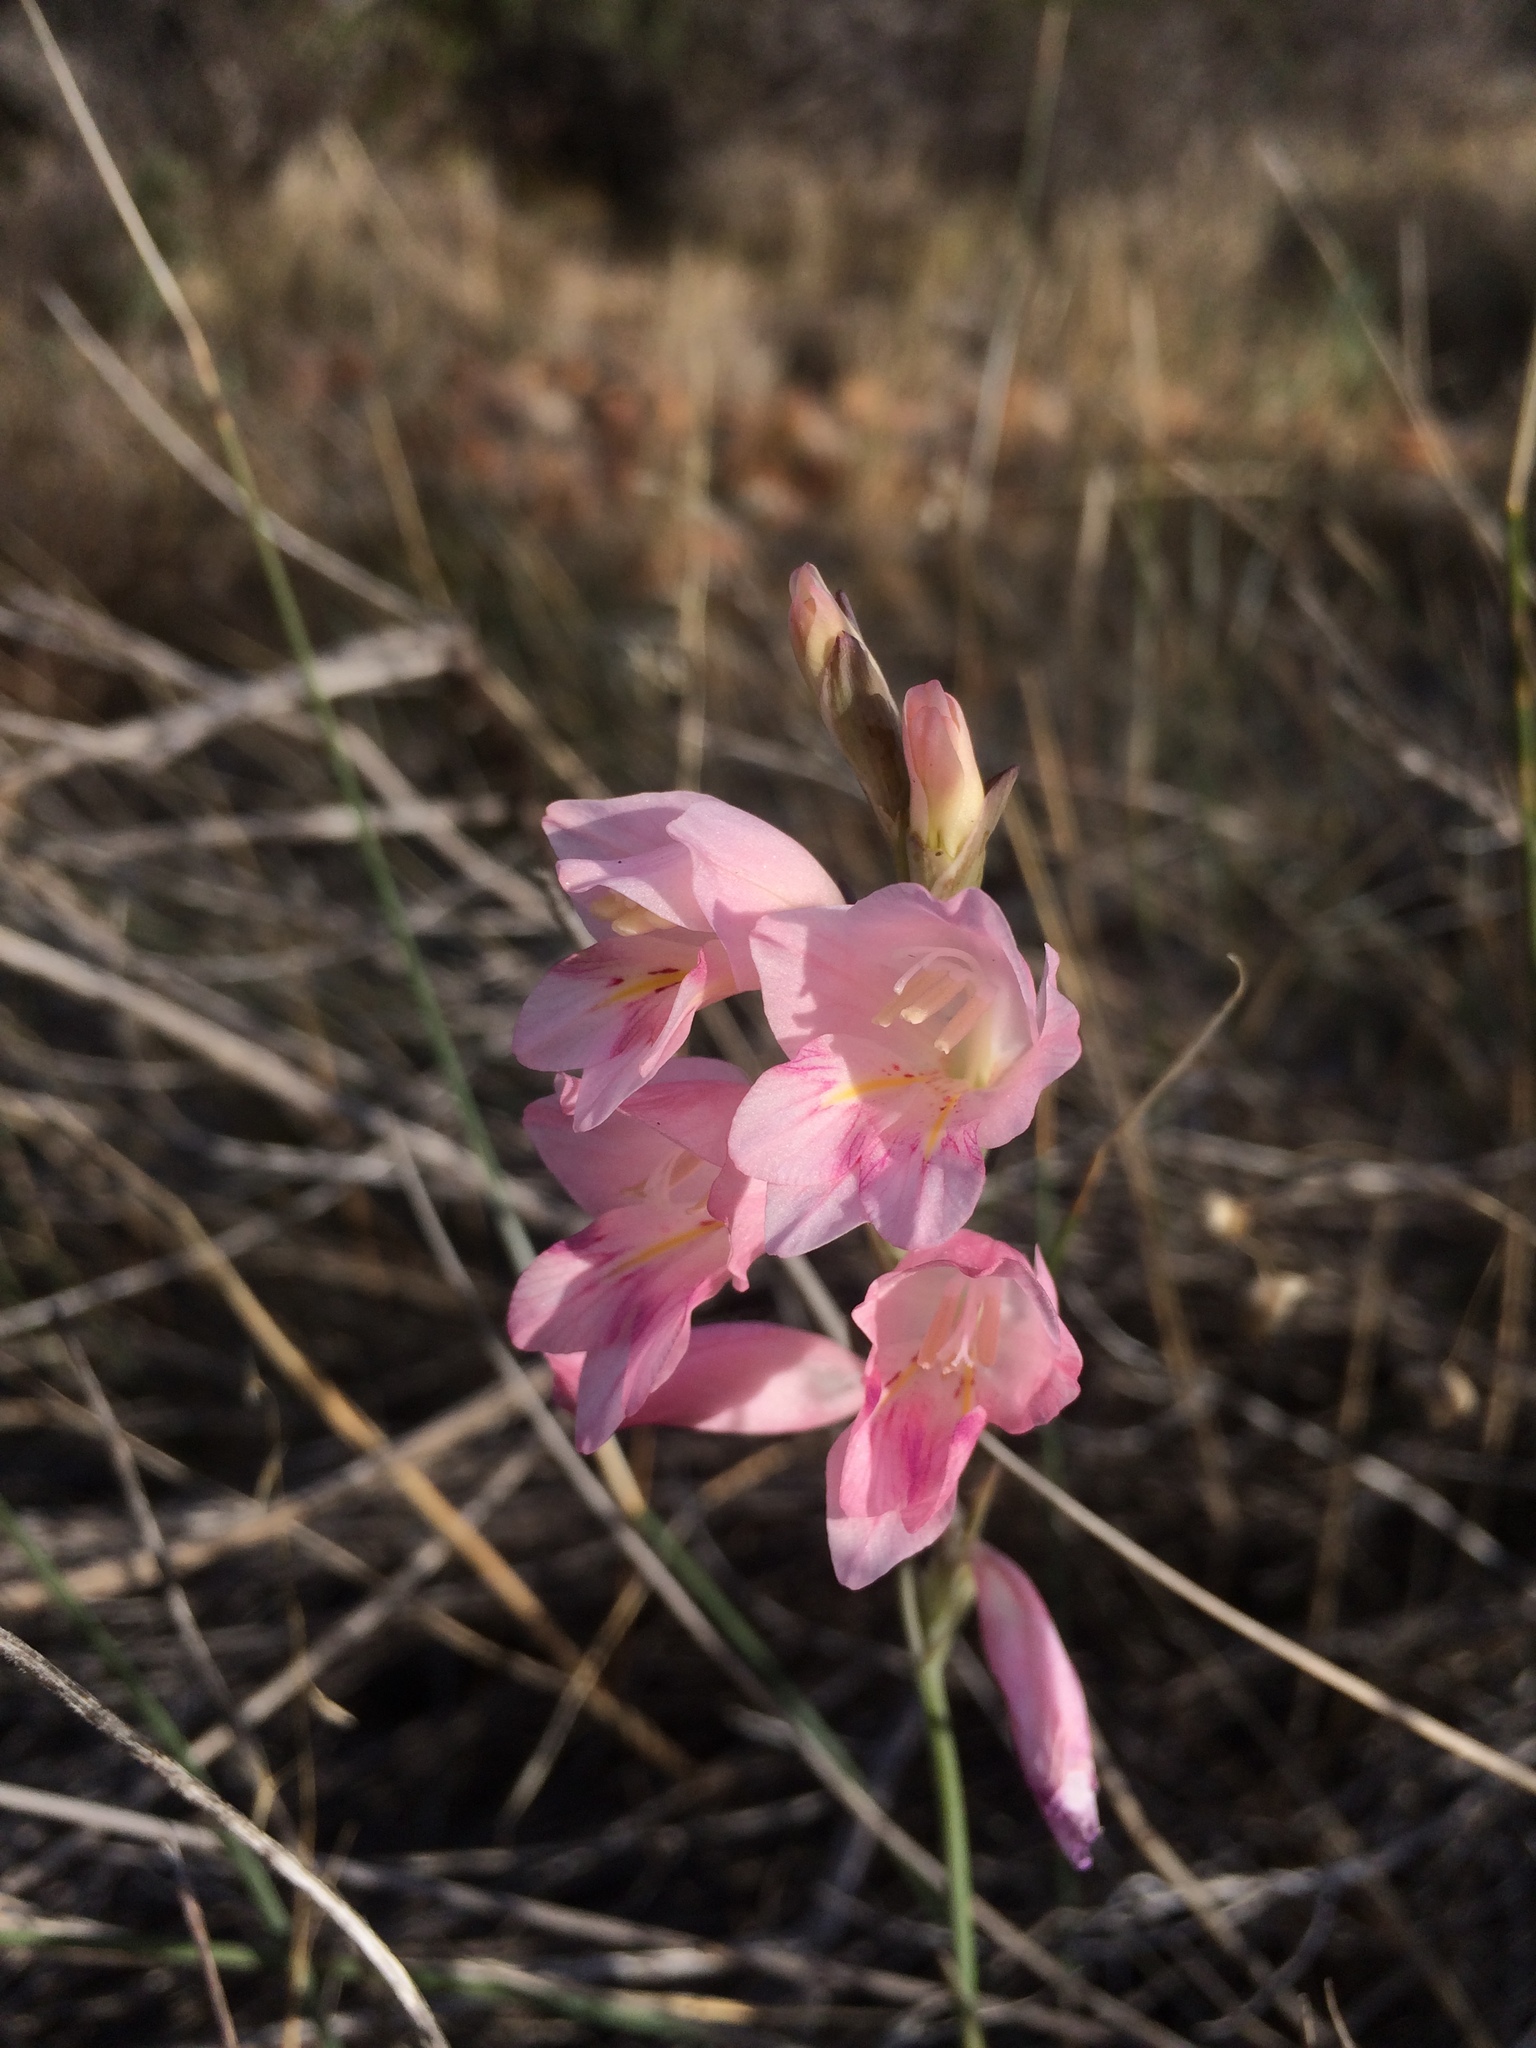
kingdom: Plantae
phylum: Tracheophyta
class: Liliopsida
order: Asparagales
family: Iridaceae
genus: Gladiolus
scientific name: Gladiolus brevifolius
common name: March pypie
